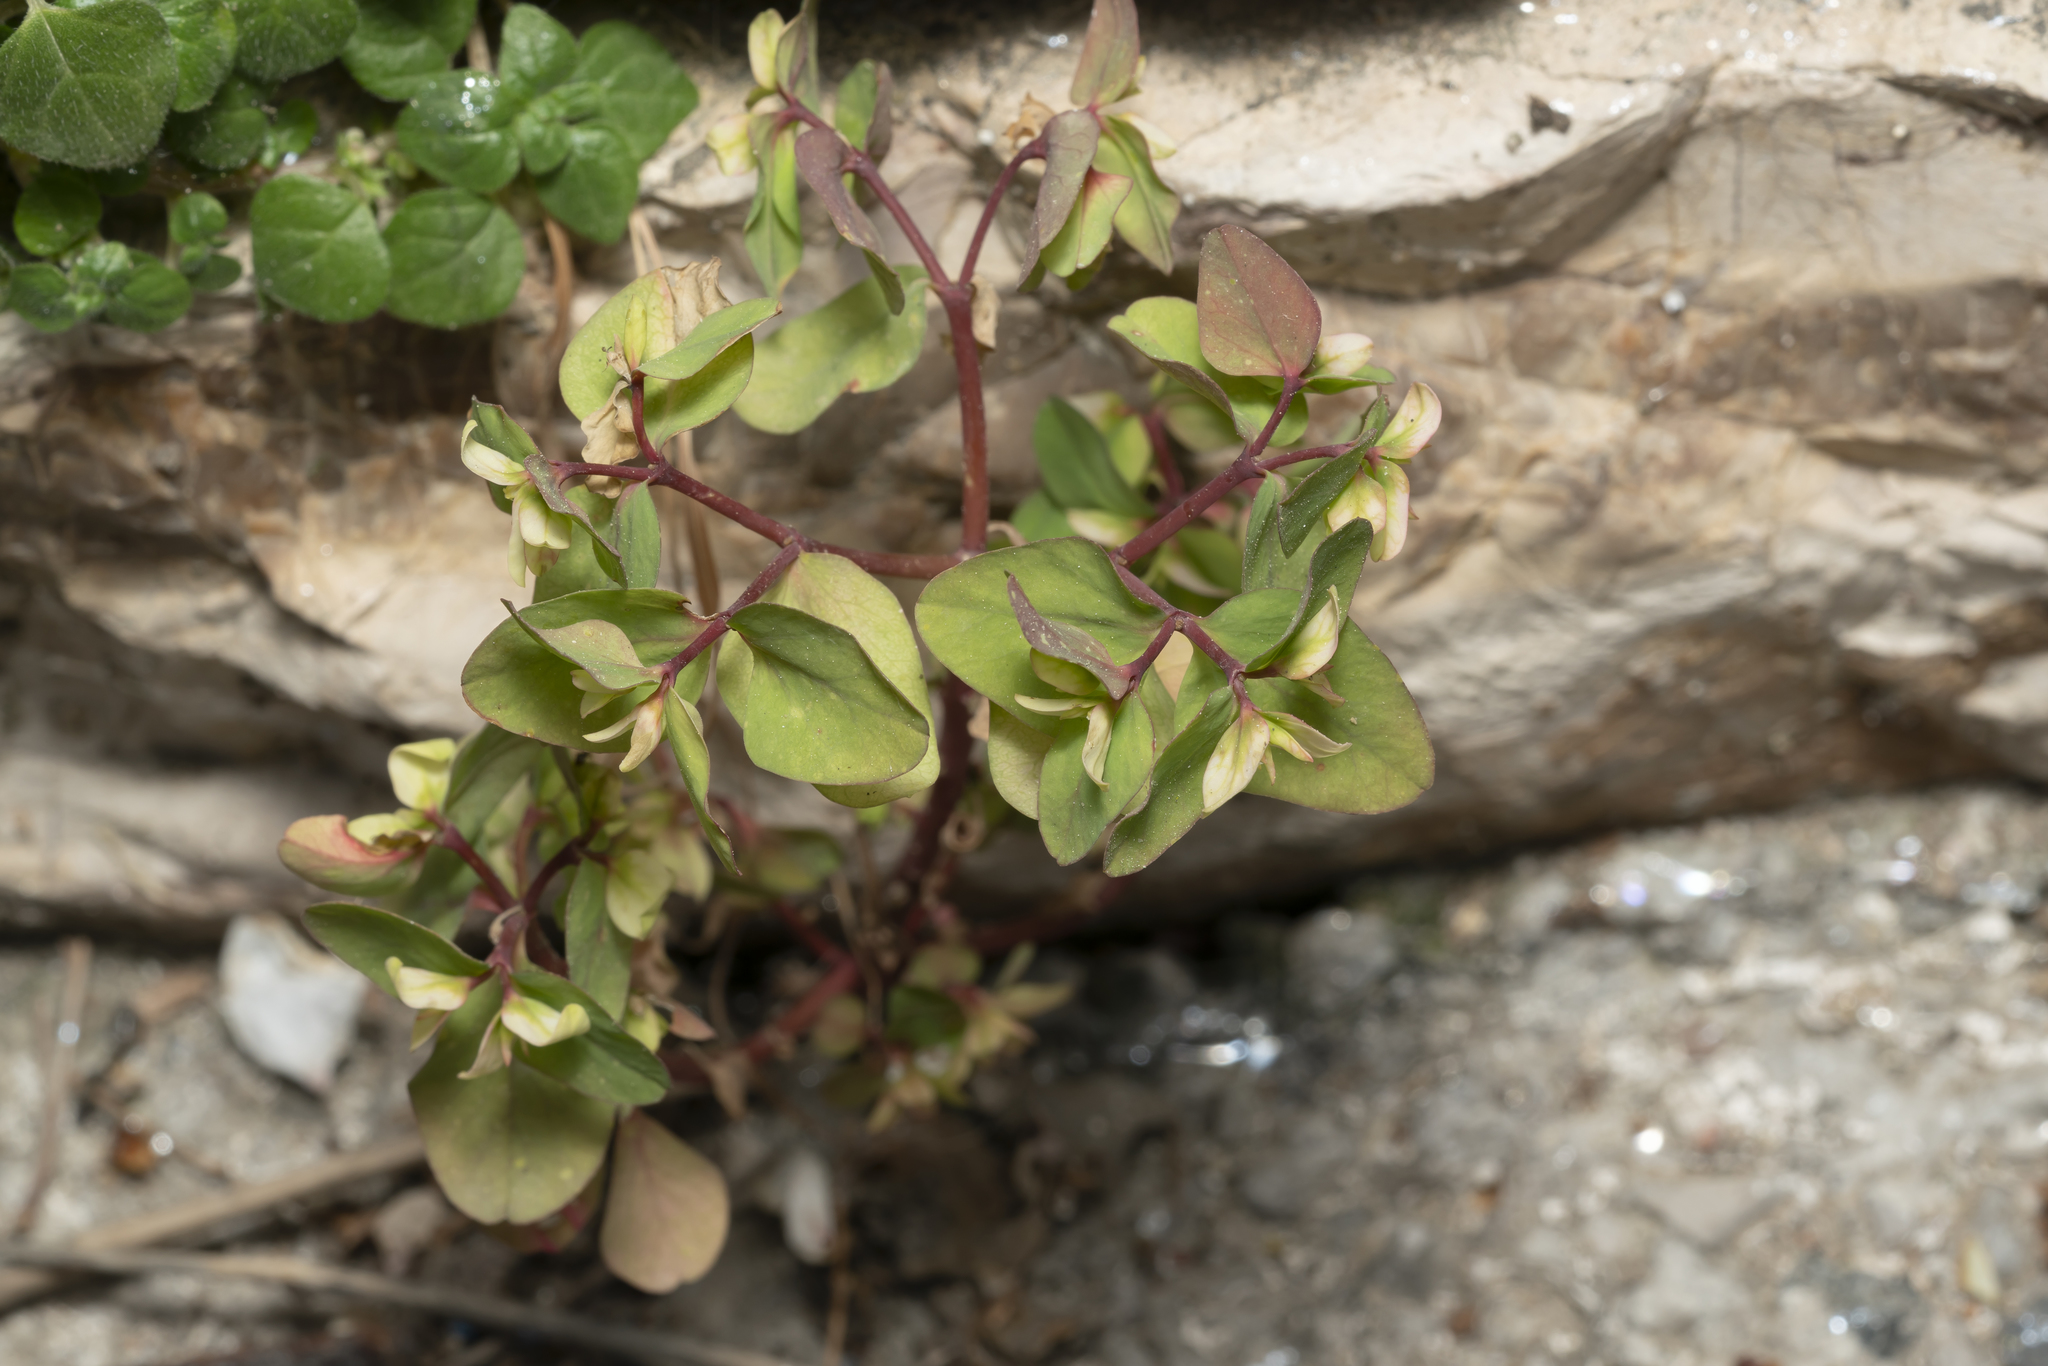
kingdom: Plantae
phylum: Tracheophyta
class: Magnoliopsida
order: Malpighiales
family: Euphorbiaceae
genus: Euphorbia
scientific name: Euphorbia peplus
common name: Petty spurge
